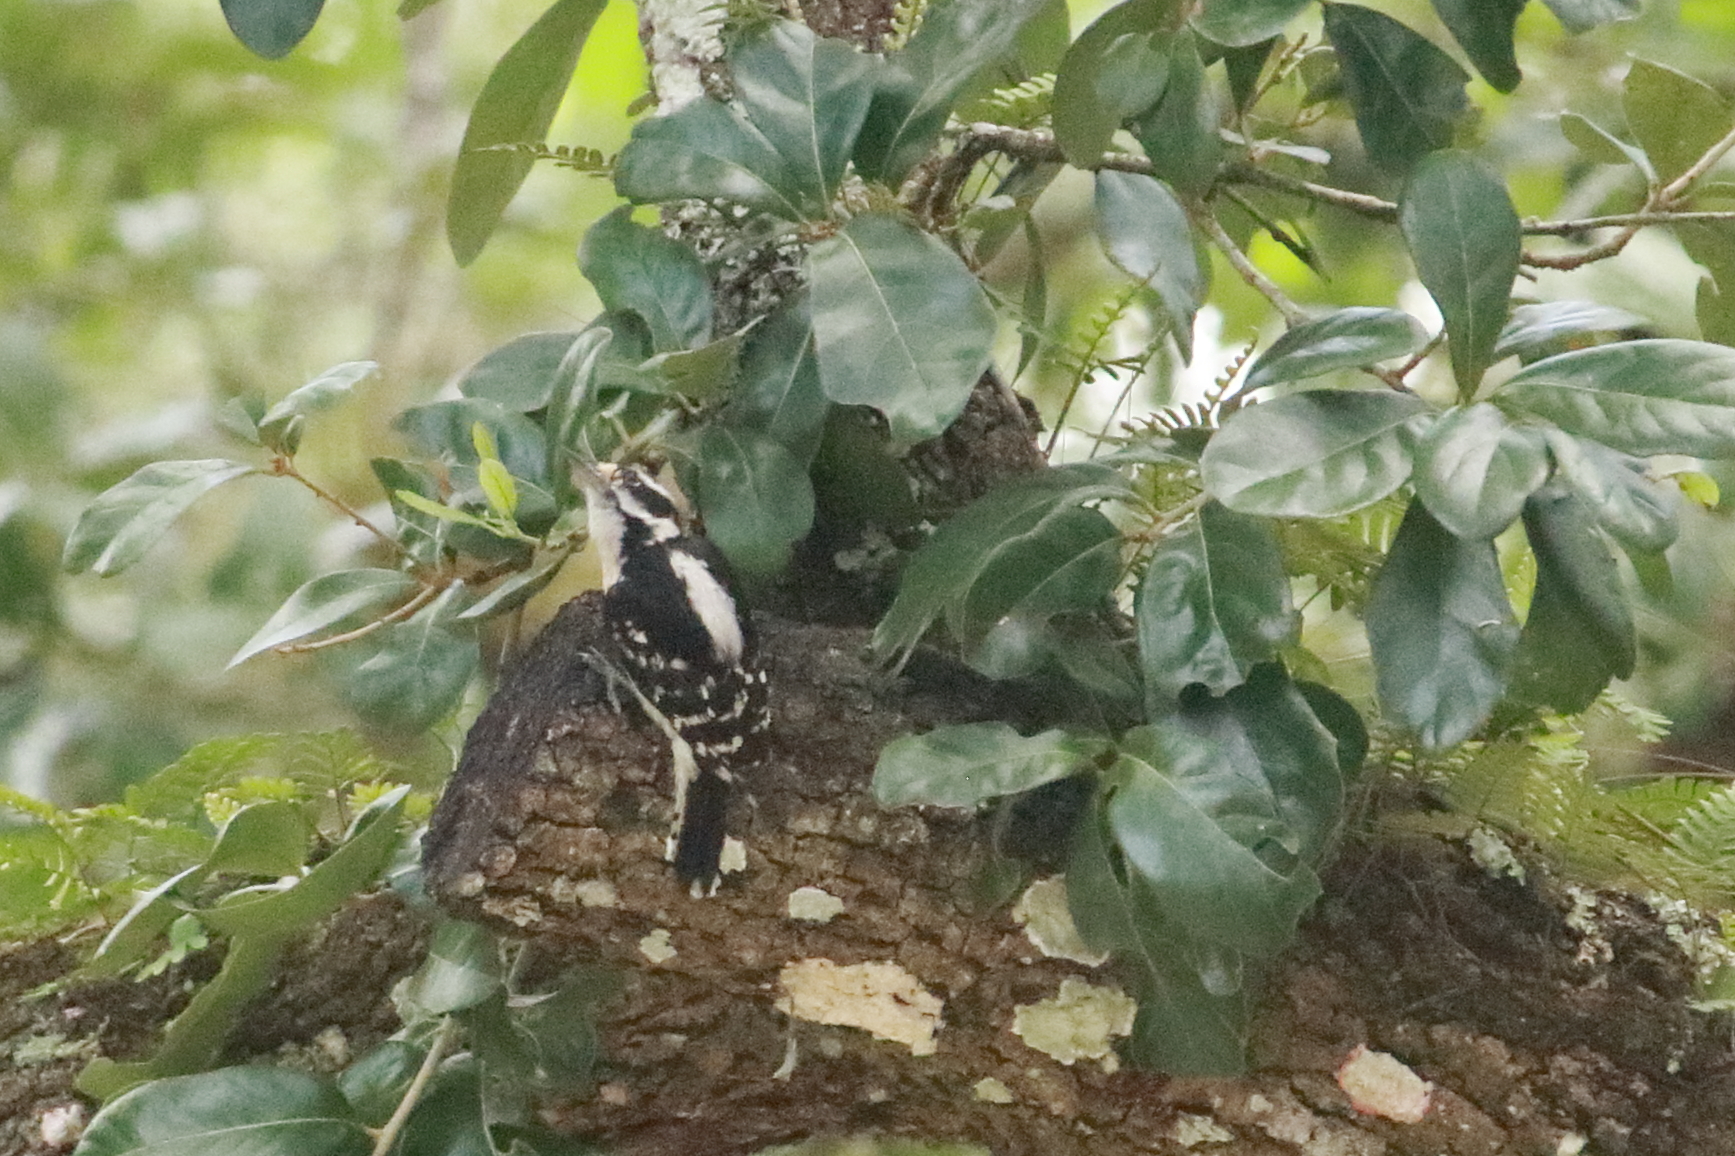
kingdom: Animalia
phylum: Chordata
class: Aves
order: Piciformes
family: Picidae
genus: Dryobates
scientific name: Dryobates pubescens
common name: Downy woodpecker
